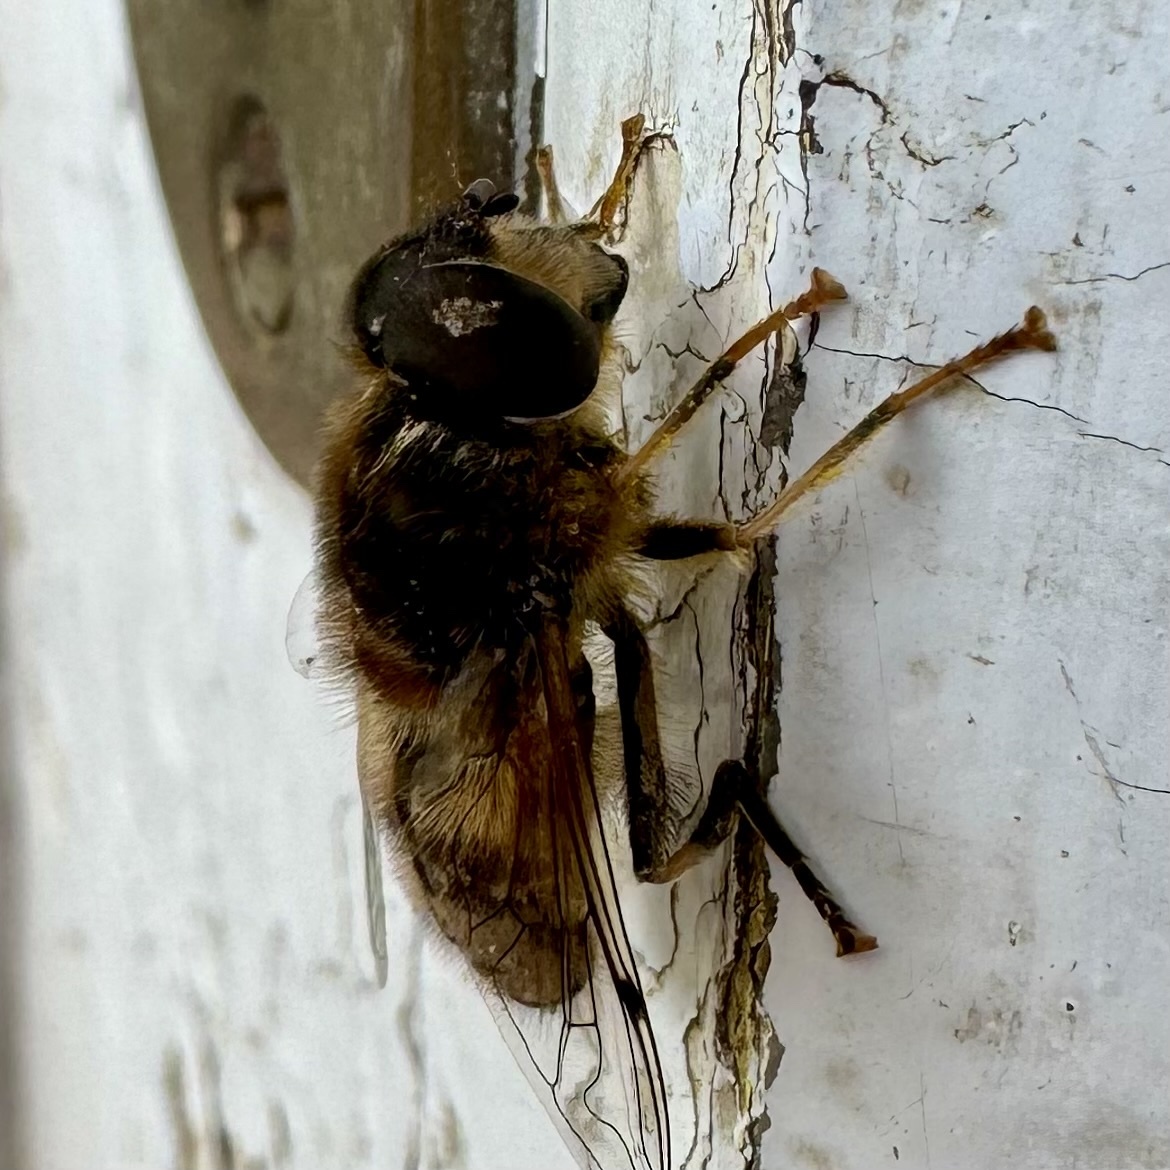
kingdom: Animalia
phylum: Arthropoda
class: Insecta
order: Diptera
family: Syrphidae
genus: Eristalis
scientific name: Eristalis pertinax
